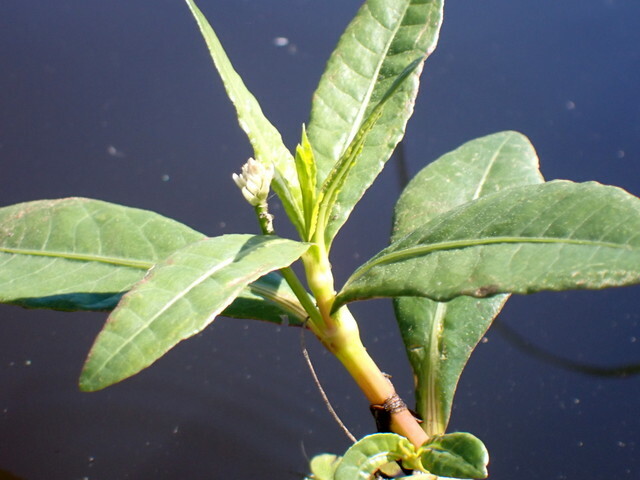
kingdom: Plantae
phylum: Tracheophyta
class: Magnoliopsida
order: Caryophyllales
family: Amaranthaceae
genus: Alternanthera
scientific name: Alternanthera philoxeroides
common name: Alligatorweed
